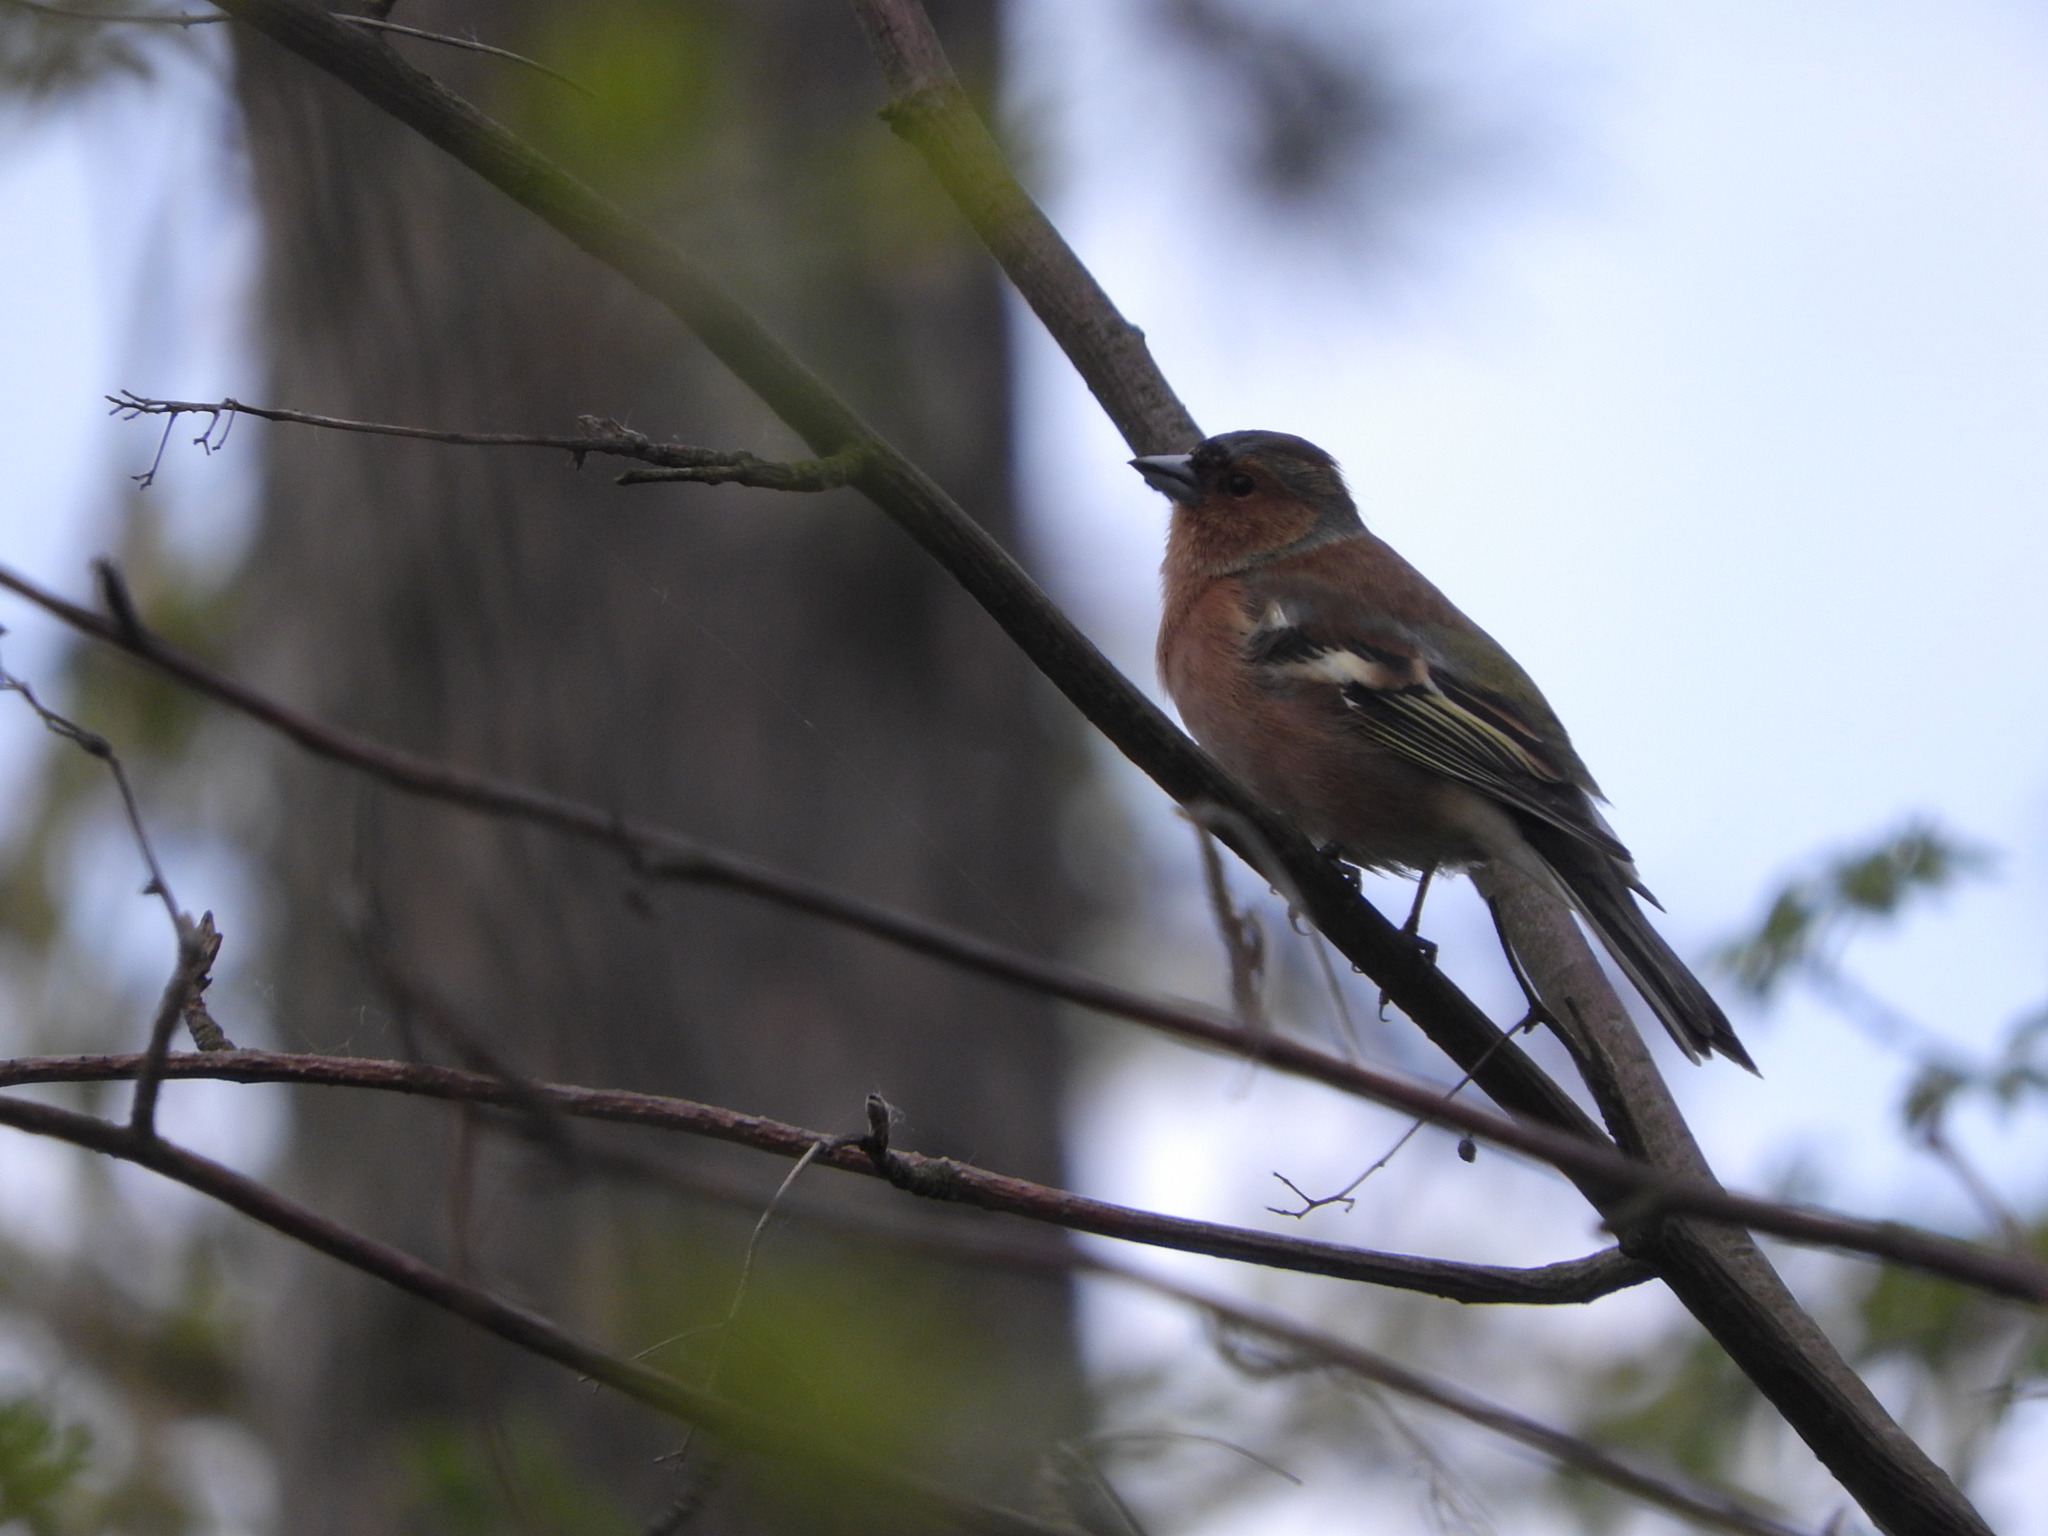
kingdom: Animalia
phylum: Chordata
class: Aves
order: Passeriformes
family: Fringillidae
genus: Fringilla
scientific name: Fringilla coelebs
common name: Common chaffinch
